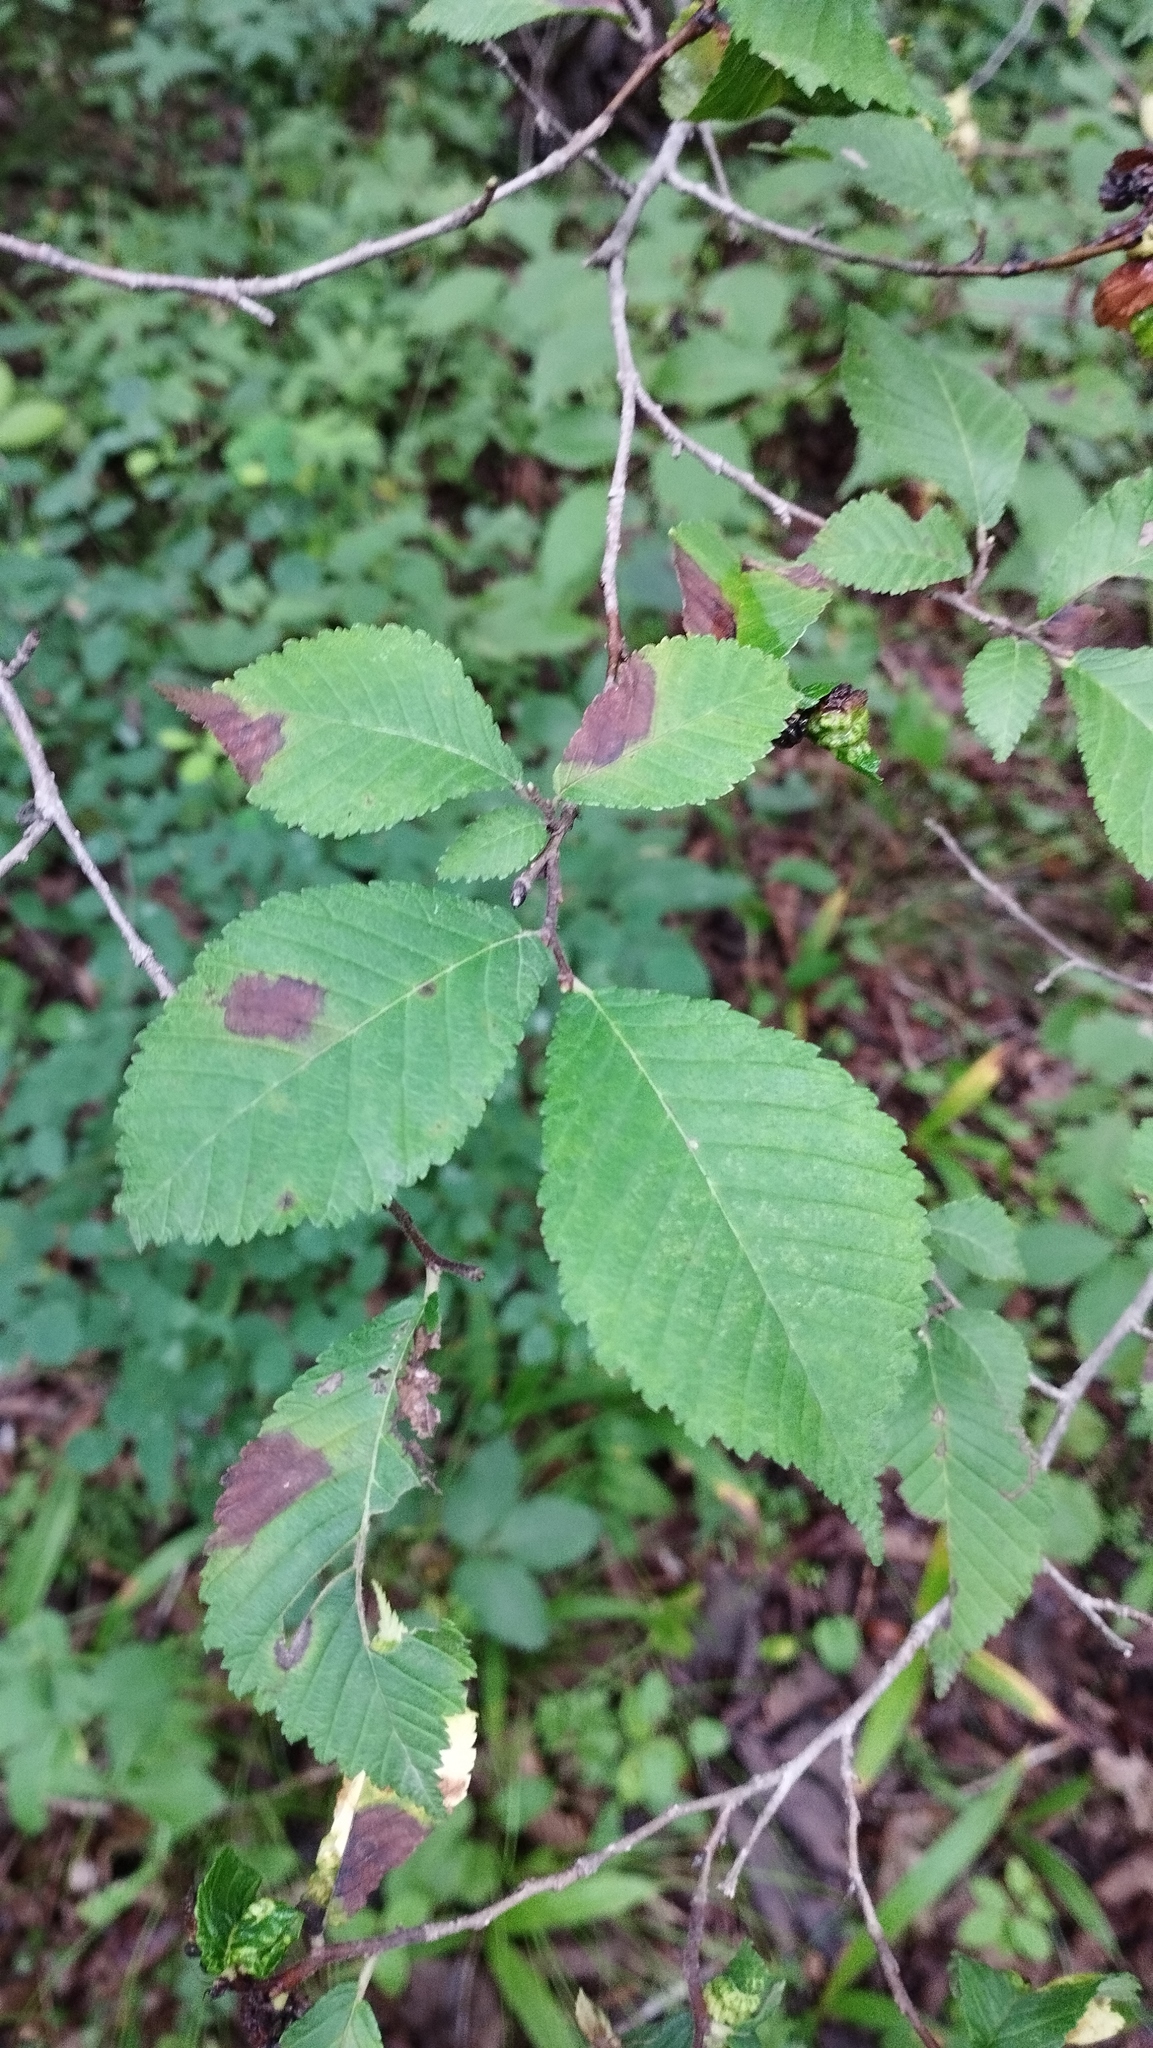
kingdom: Plantae
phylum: Tracheophyta
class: Magnoliopsida
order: Rosales
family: Ulmaceae
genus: Ulmus
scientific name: Ulmus davidiana
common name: Japanese elm
